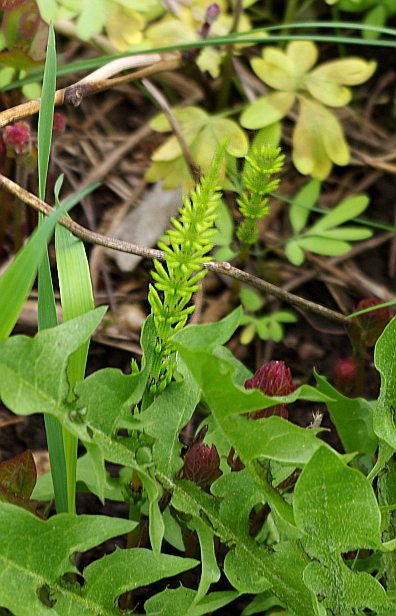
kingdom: Plantae
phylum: Tracheophyta
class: Polypodiopsida
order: Equisetales
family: Equisetaceae
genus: Equisetum
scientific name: Equisetum arvense
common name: Field horsetail
